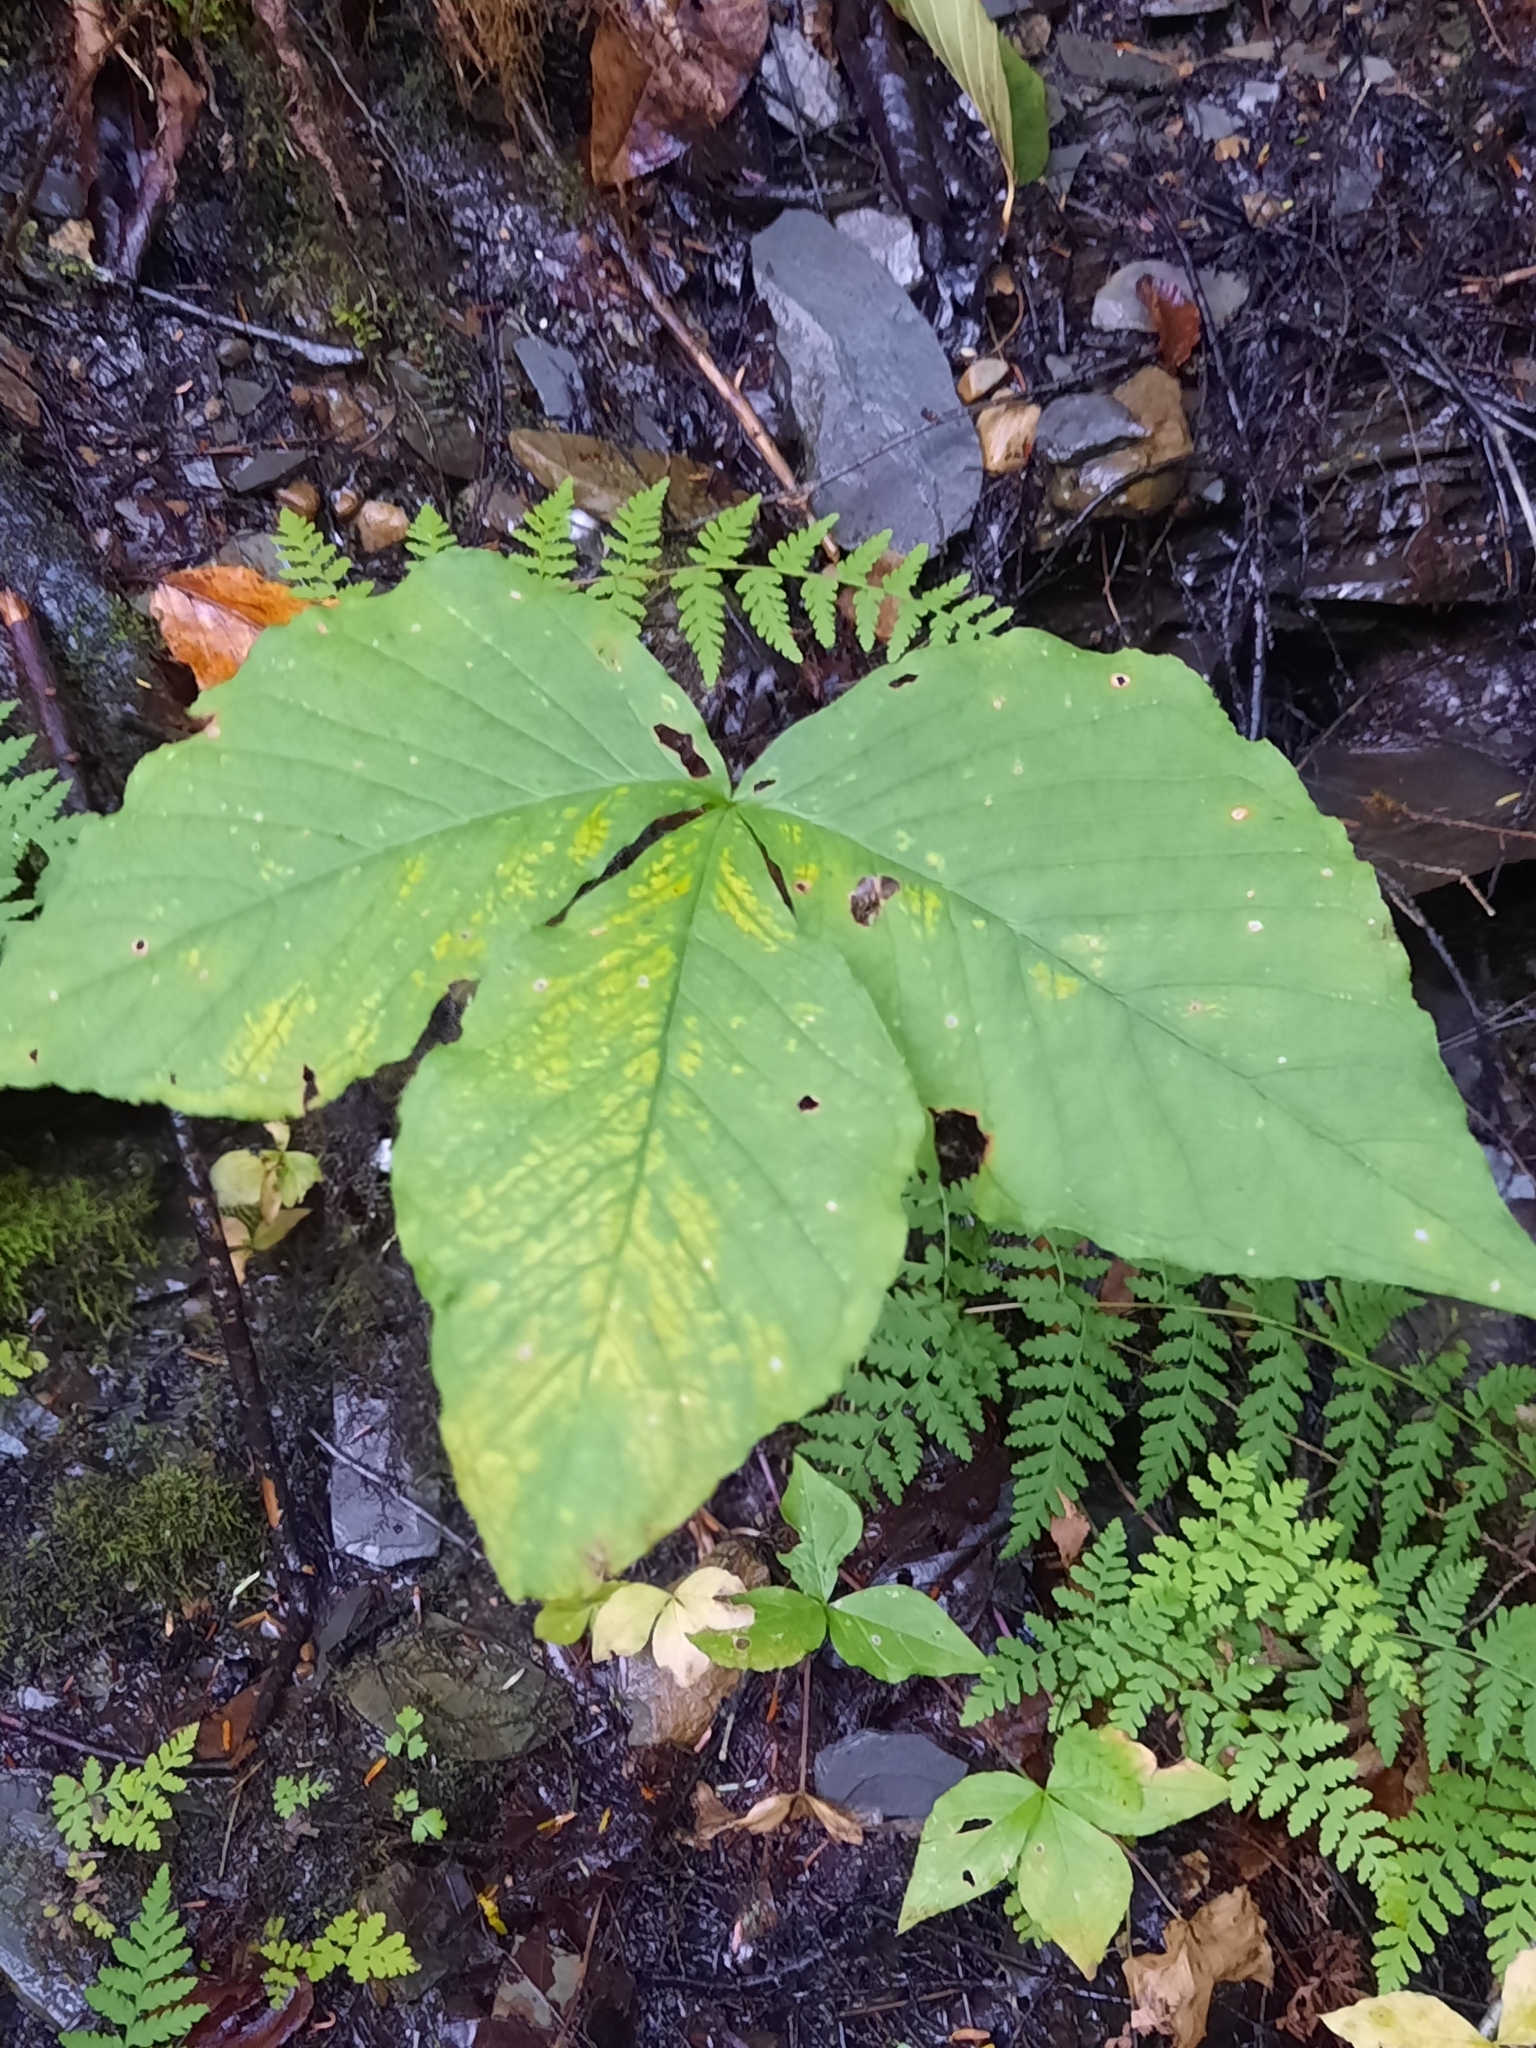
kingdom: Plantae
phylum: Tracheophyta
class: Liliopsida
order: Alismatales
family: Araceae
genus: Arisaema
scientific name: Arisaema
